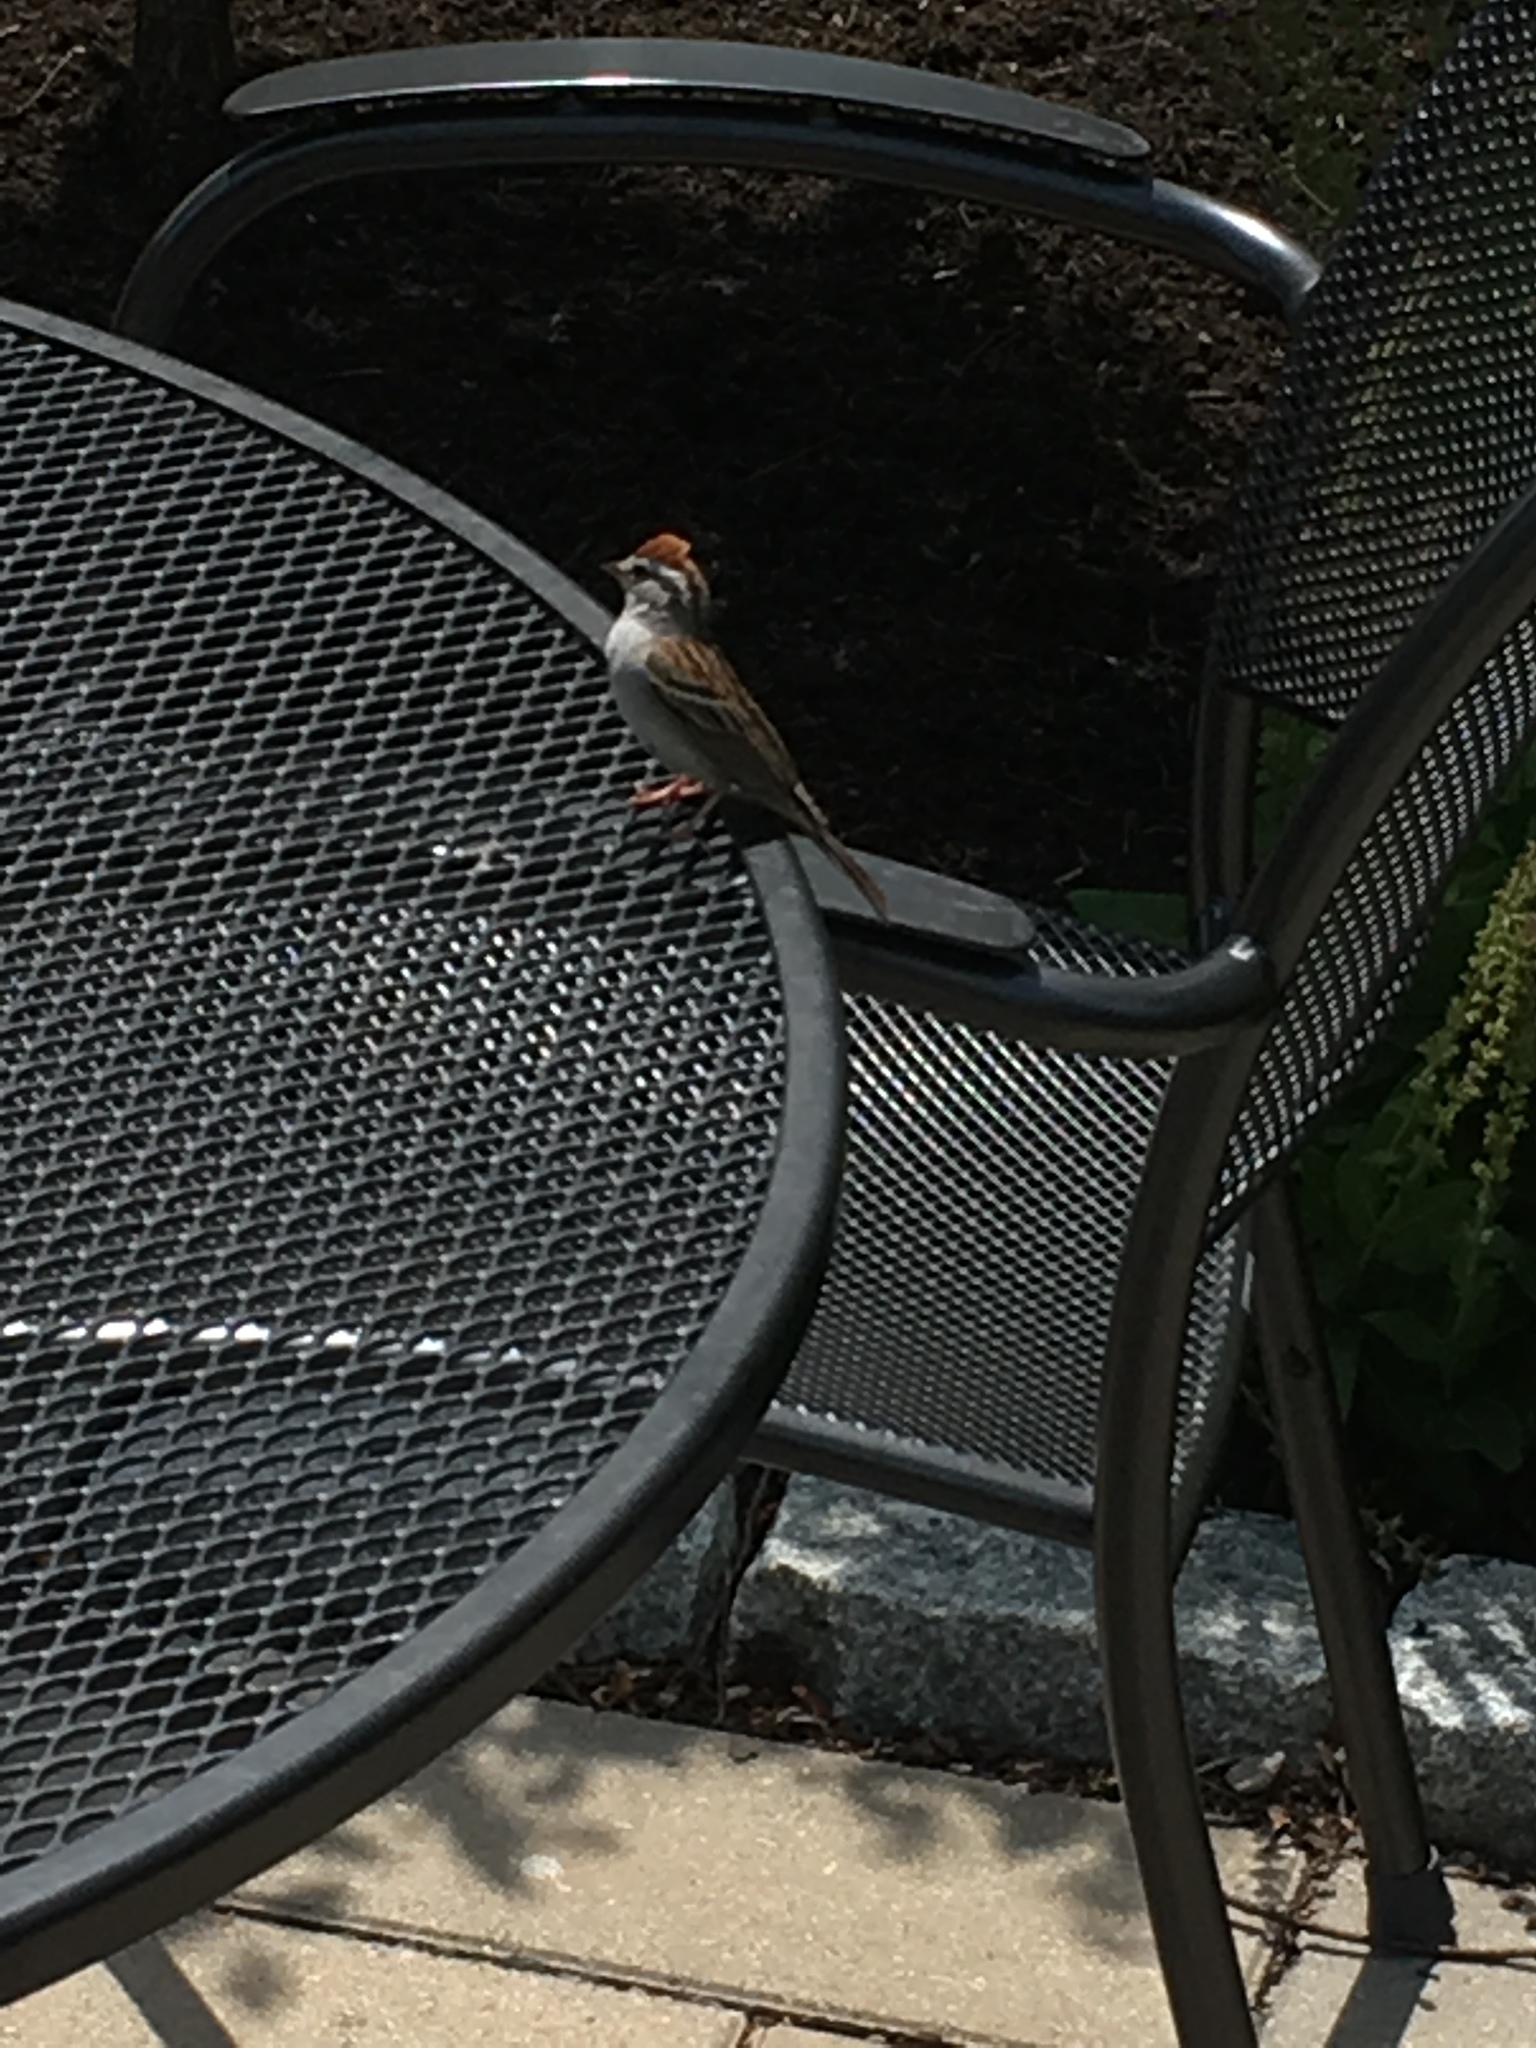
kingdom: Animalia
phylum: Chordata
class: Aves
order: Passeriformes
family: Passerellidae
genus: Spizella
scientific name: Spizella passerina
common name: Chipping sparrow
